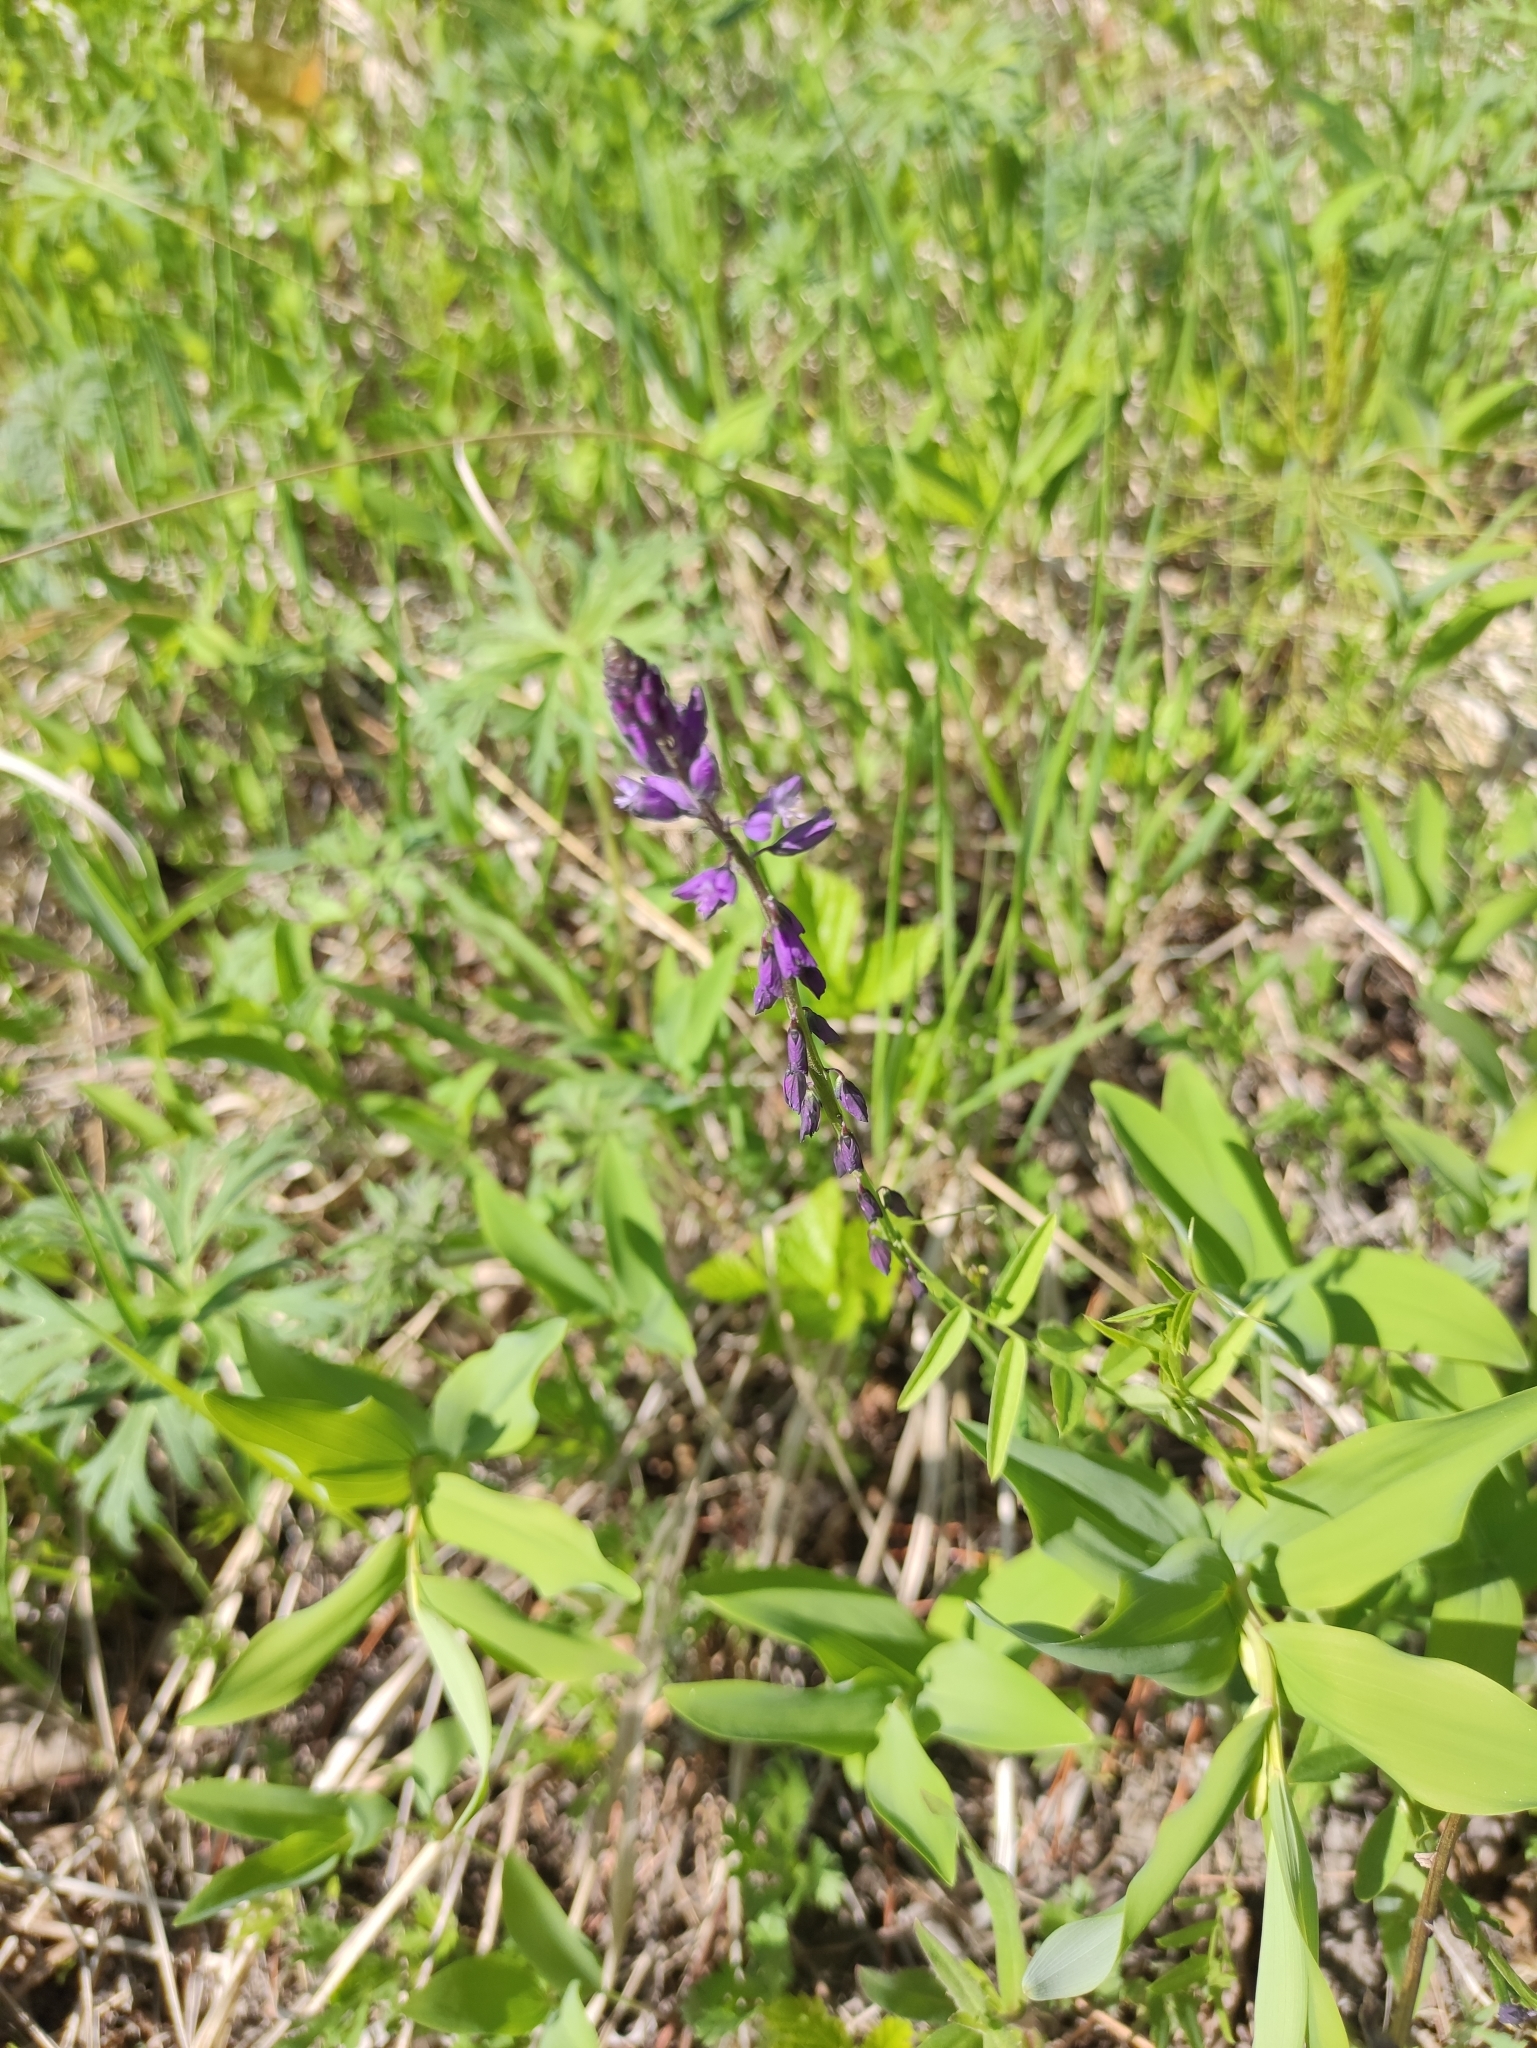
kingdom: Plantae
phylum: Tracheophyta
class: Magnoliopsida
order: Fabales
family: Polygalaceae
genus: Polygala
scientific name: Polygala comosa
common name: Tufted milkwort
